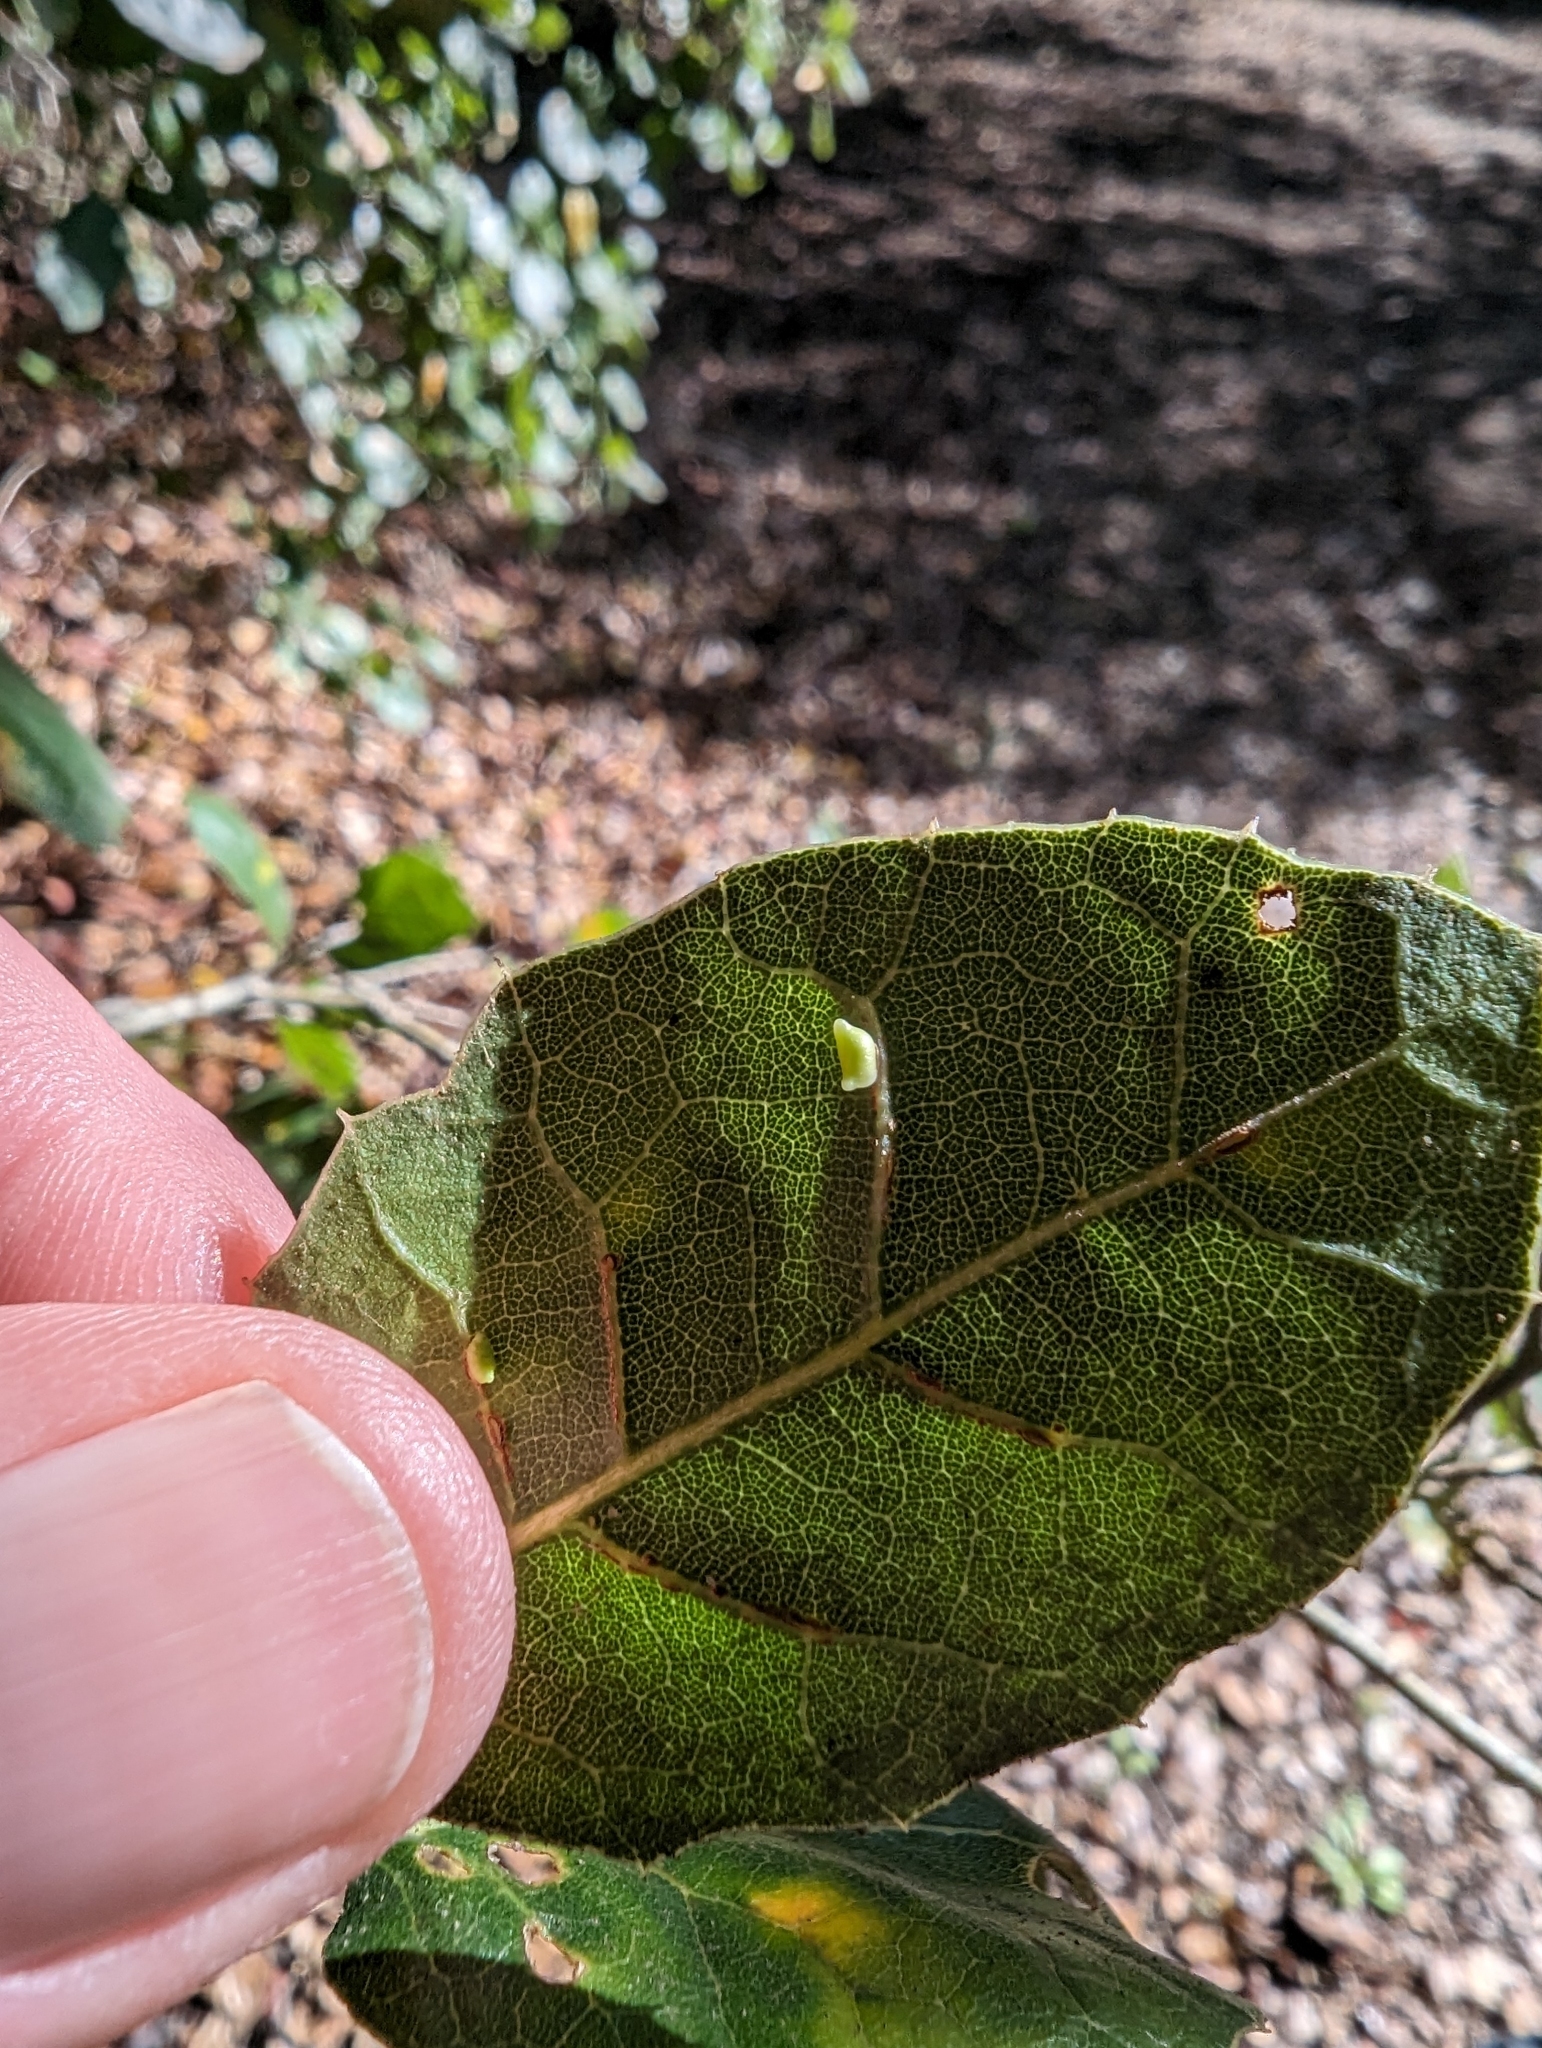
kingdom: Animalia
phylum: Arthropoda
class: Insecta
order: Hymenoptera
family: Cynipidae
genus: Dryocosmus
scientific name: Dryocosmus
